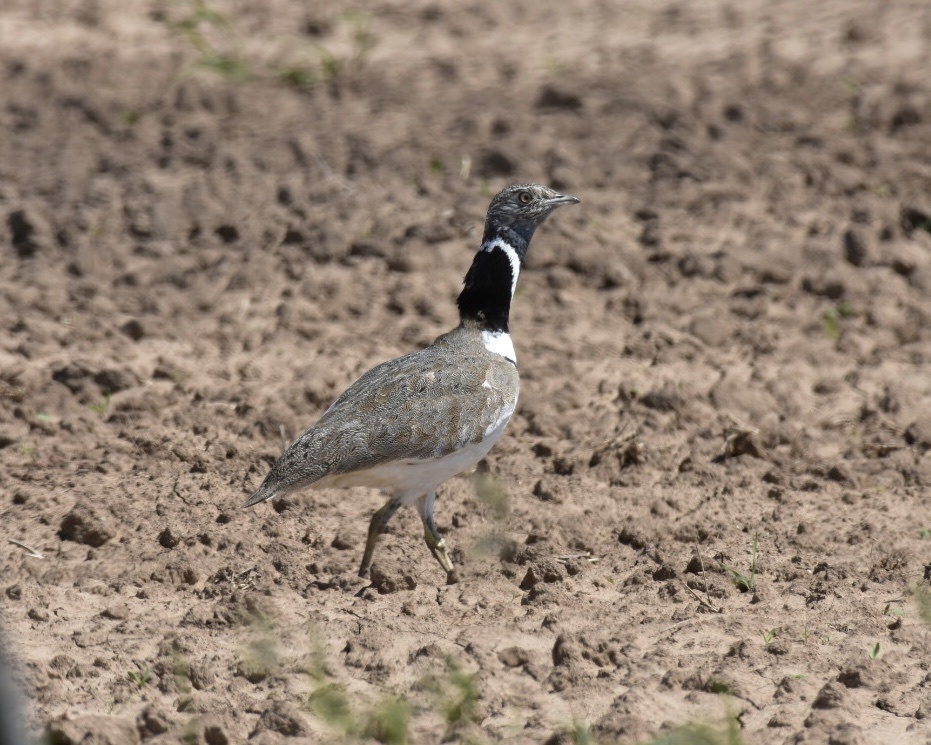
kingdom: Animalia
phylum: Chordata
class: Aves
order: Otidiformes
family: Otididae
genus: Tetrax
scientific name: Tetrax tetrax
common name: Little bustard
